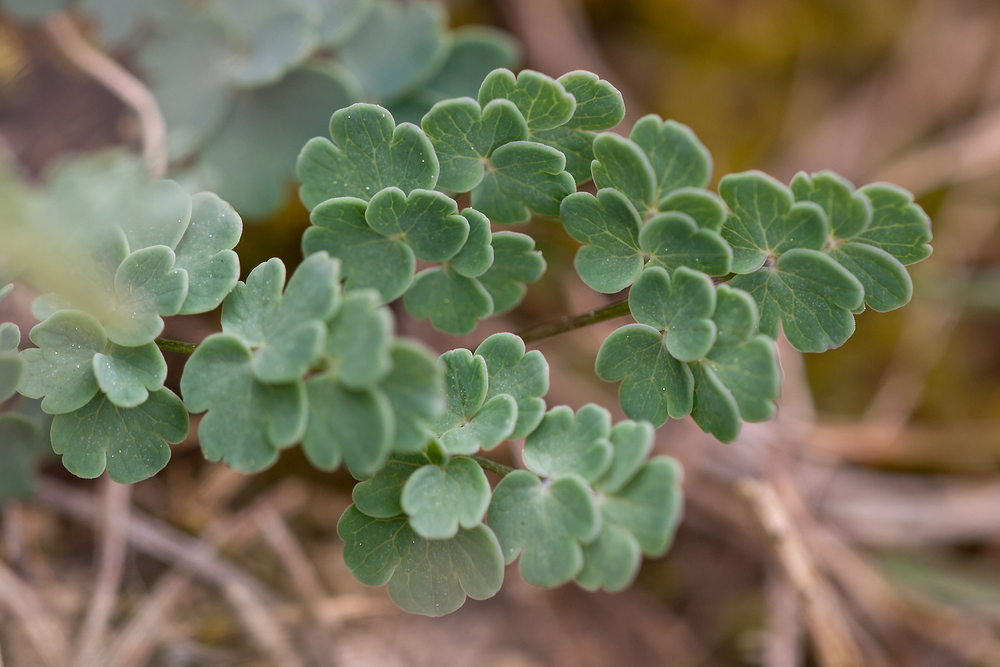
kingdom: Plantae
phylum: Tracheophyta
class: Magnoliopsida
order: Ranunculales
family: Ranunculaceae
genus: Thalictrum
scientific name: Thalictrum tuberosum
